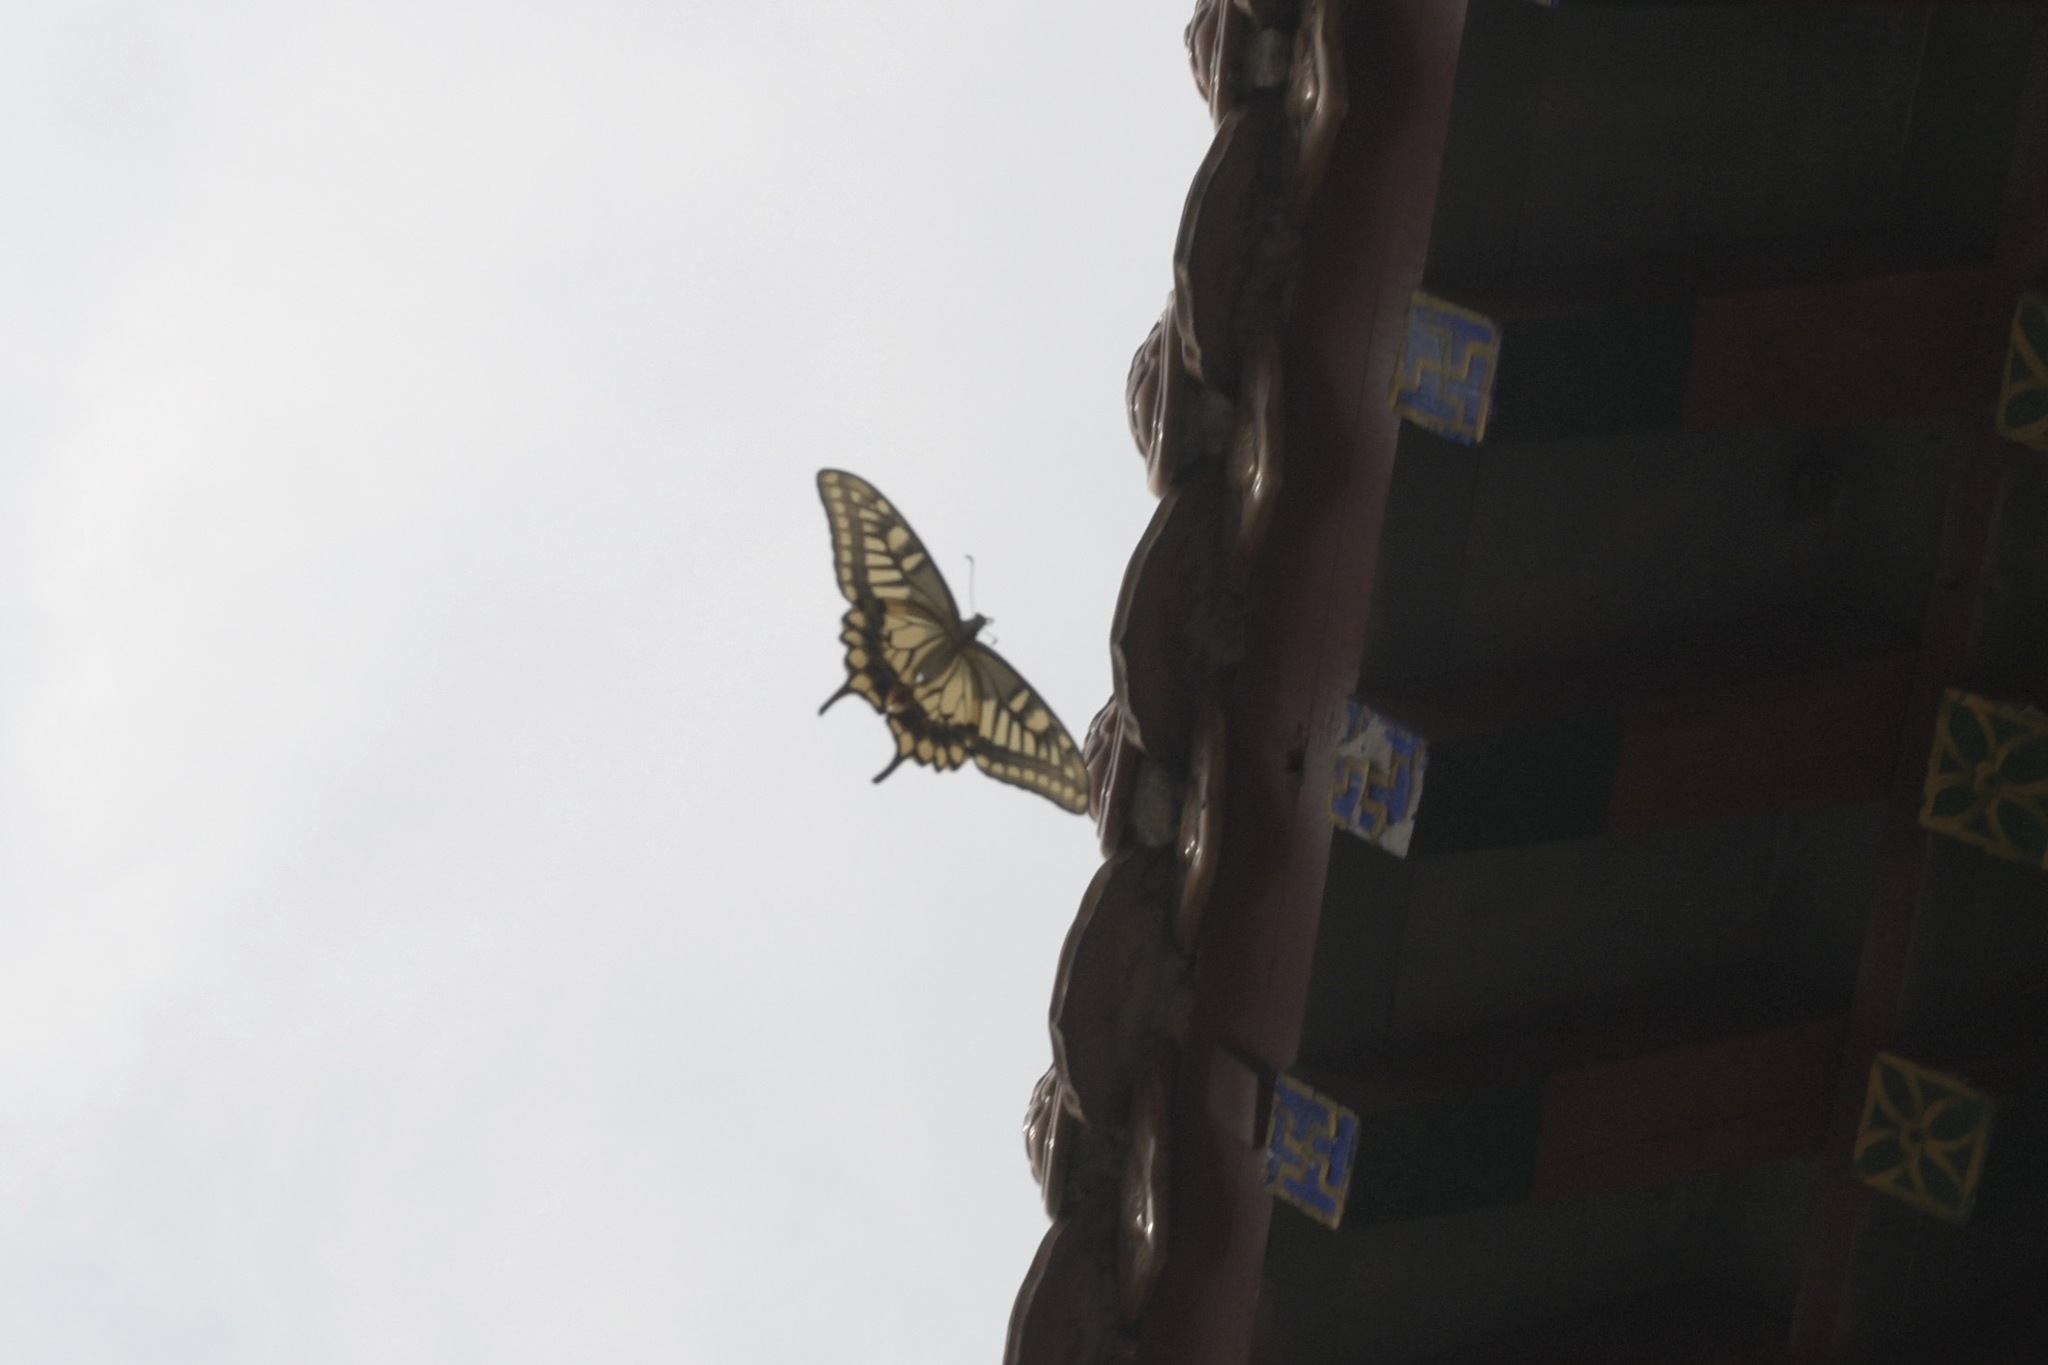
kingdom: Animalia
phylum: Arthropoda
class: Insecta
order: Lepidoptera
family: Papilionidae
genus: Papilio
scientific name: Papilio machaon
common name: Swallowtail
